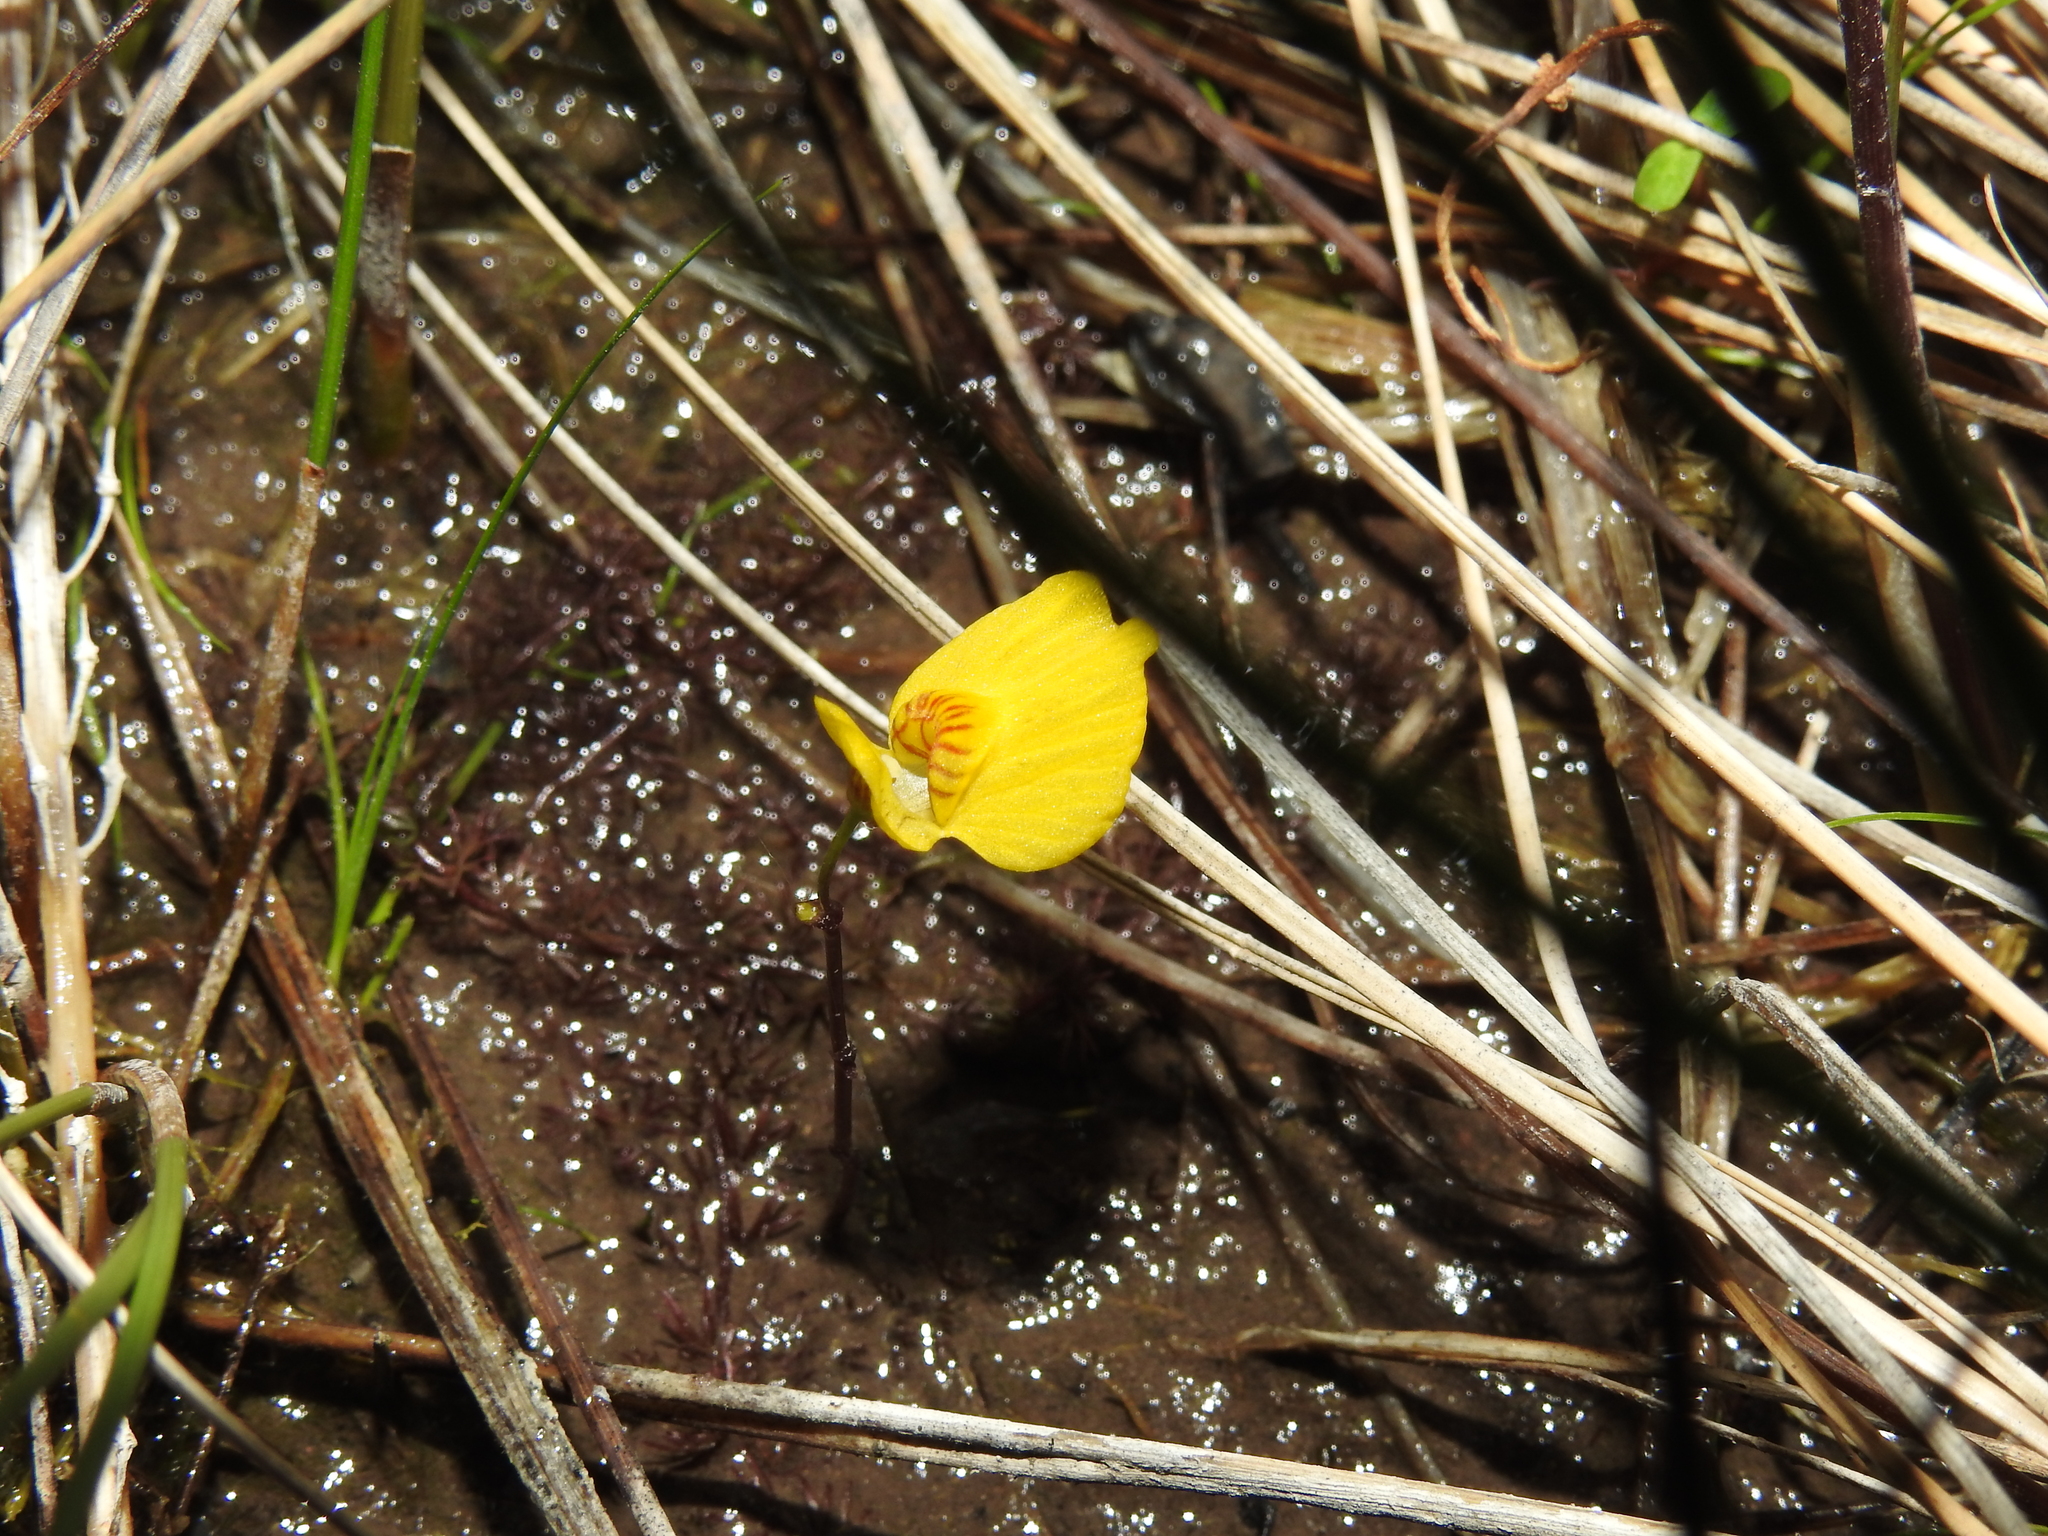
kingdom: Plantae
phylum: Tracheophyta
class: Magnoliopsida
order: Lamiales
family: Lentibulariaceae
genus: Utricularia
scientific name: Utricularia ochroleuca
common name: Pale bladderwort
